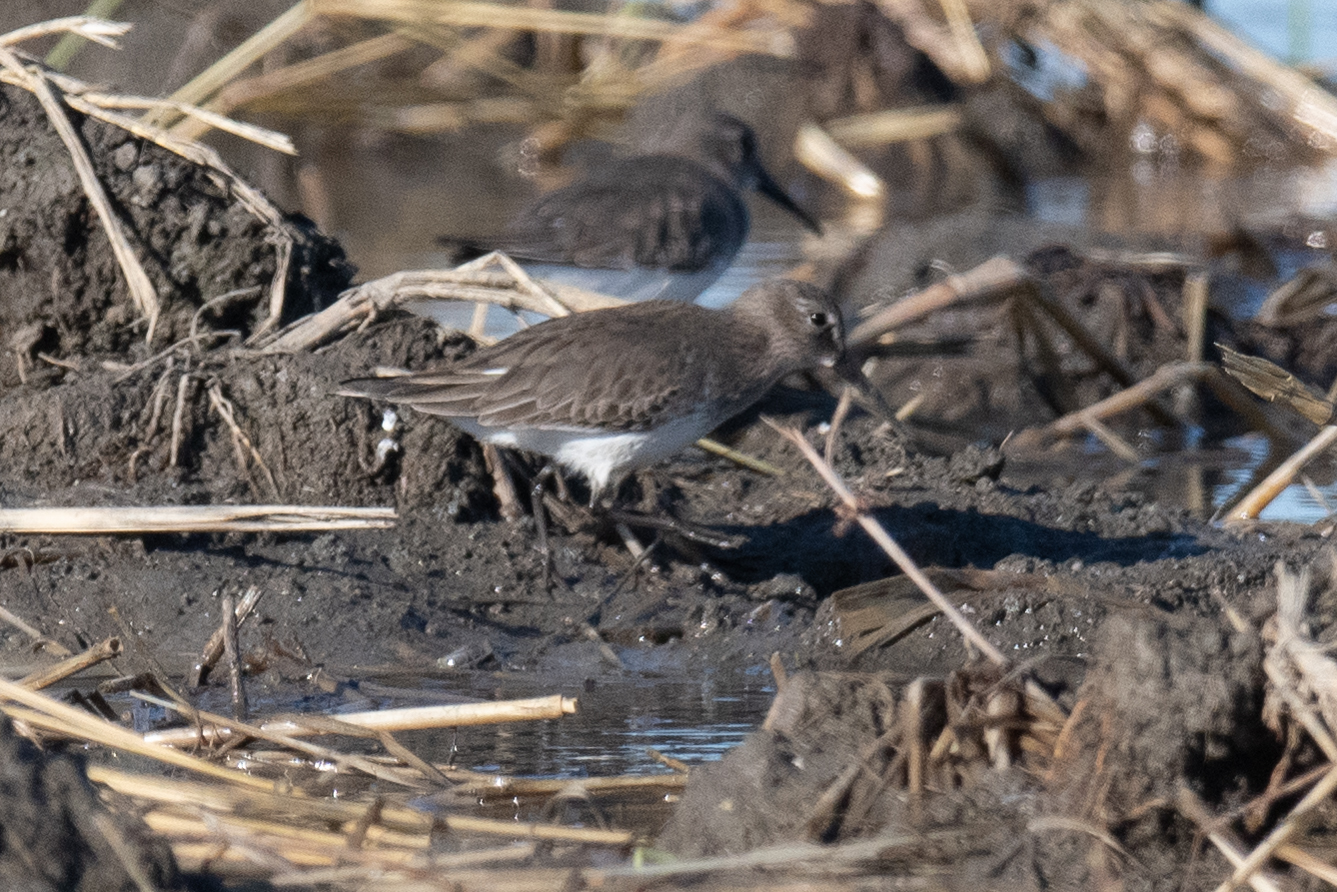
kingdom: Animalia
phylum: Chordata
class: Aves
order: Charadriiformes
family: Scolopacidae
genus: Calidris
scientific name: Calidris alpina
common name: Dunlin
